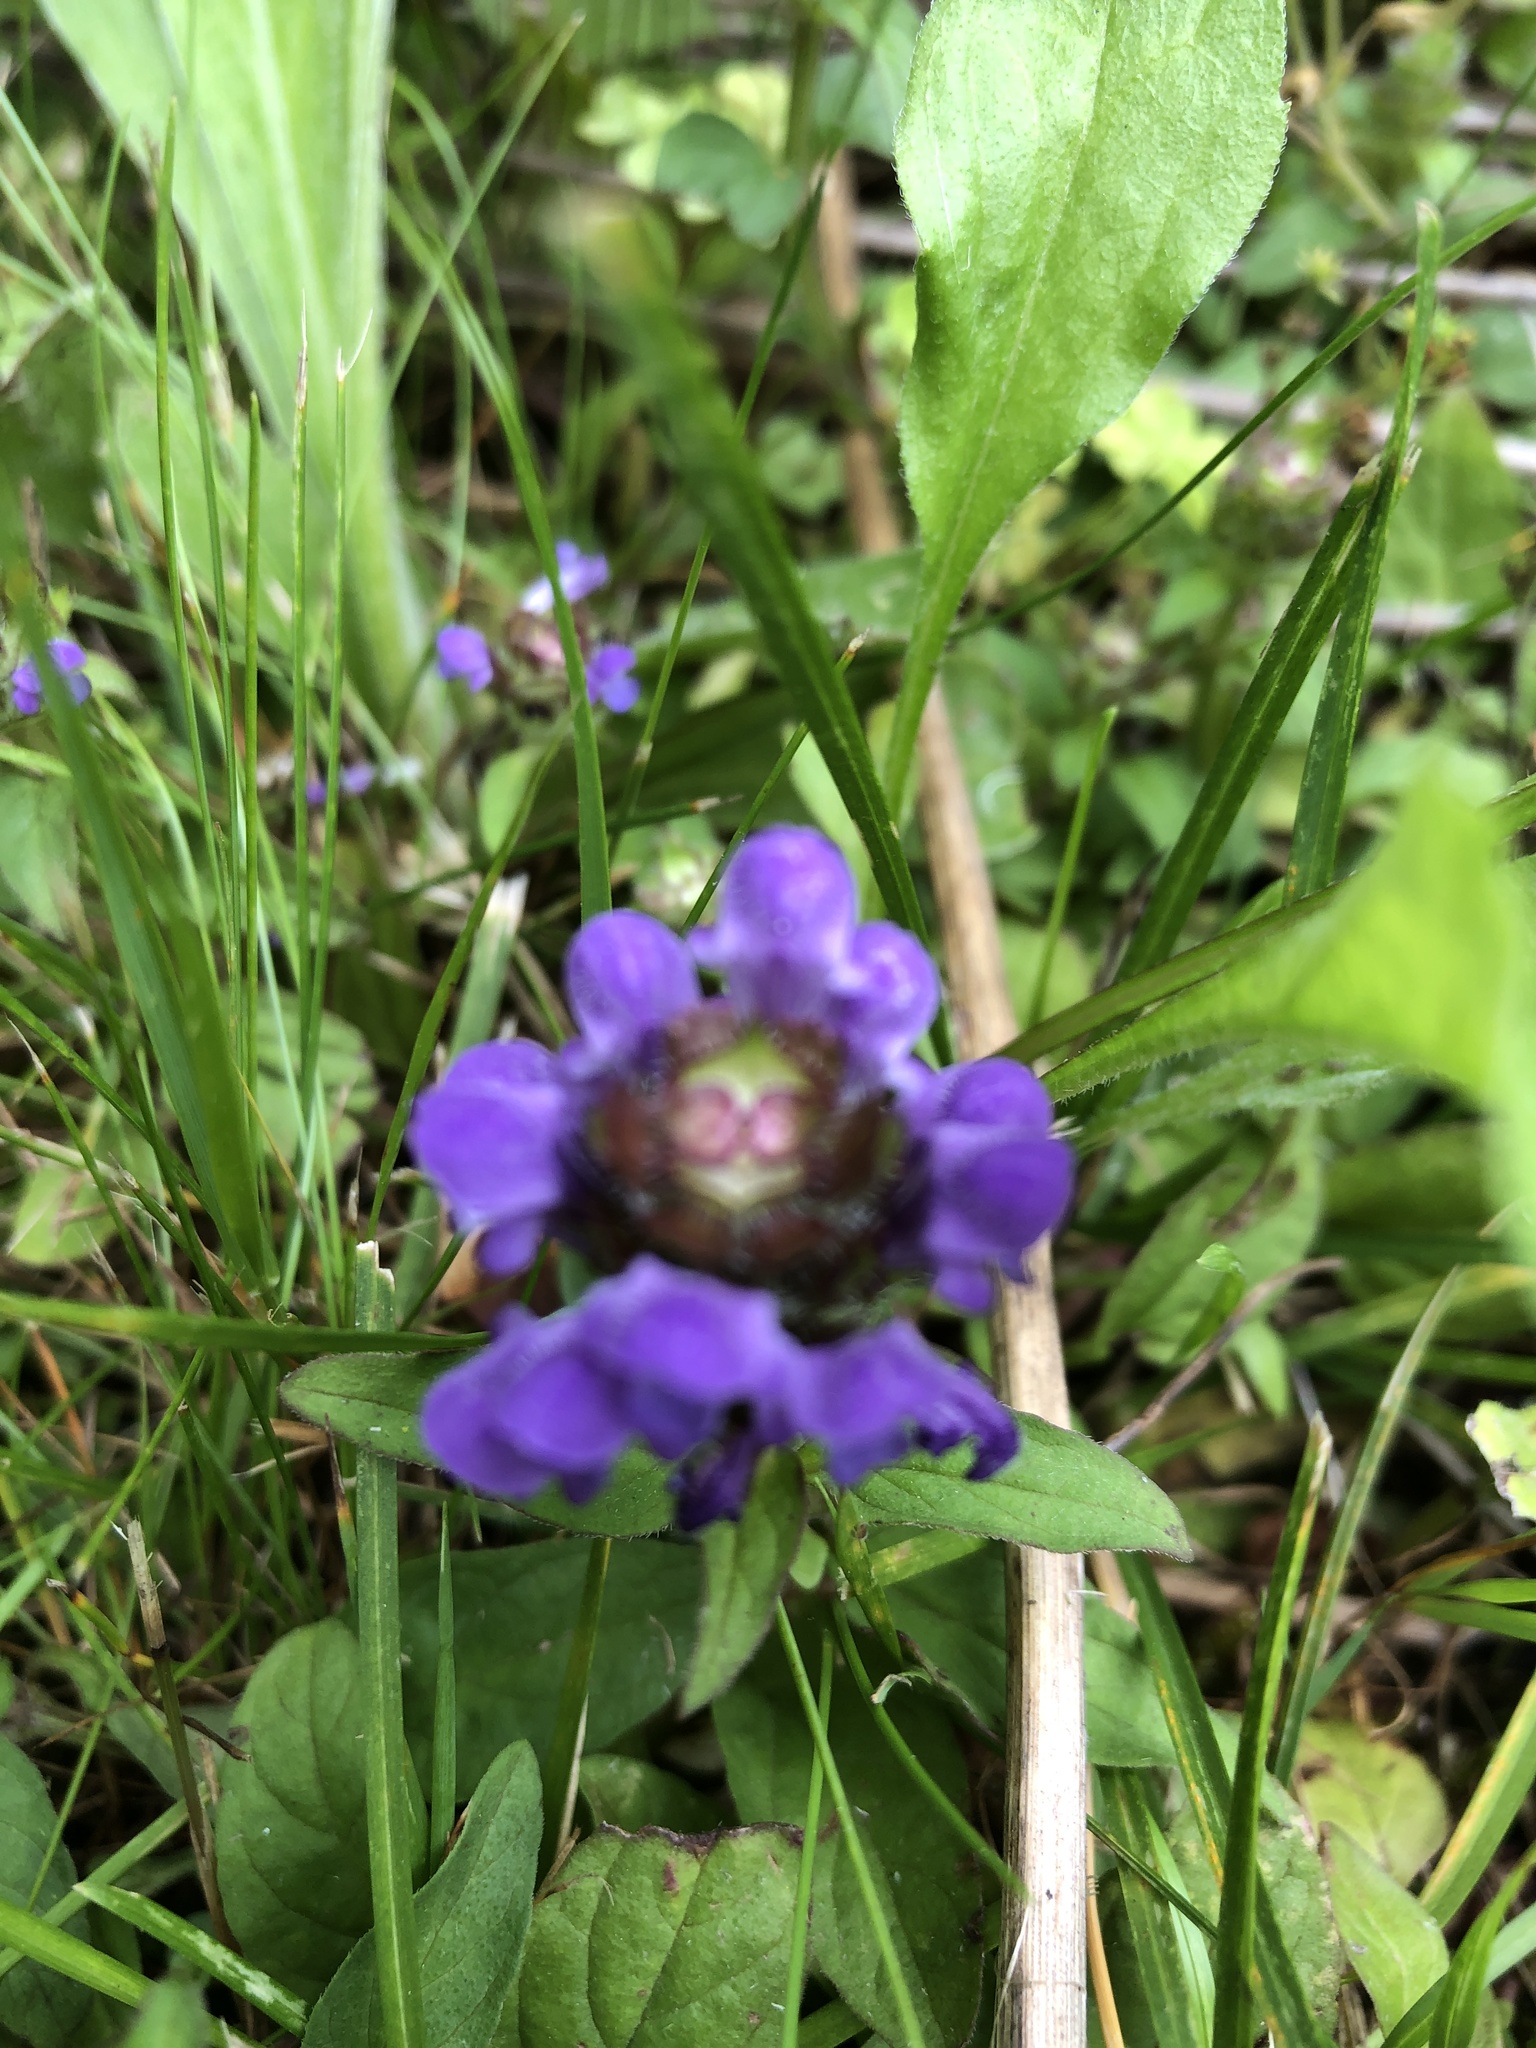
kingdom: Plantae
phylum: Tracheophyta
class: Magnoliopsida
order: Lamiales
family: Lamiaceae
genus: Prunella
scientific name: Prunella vulgaris
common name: Heal-all
